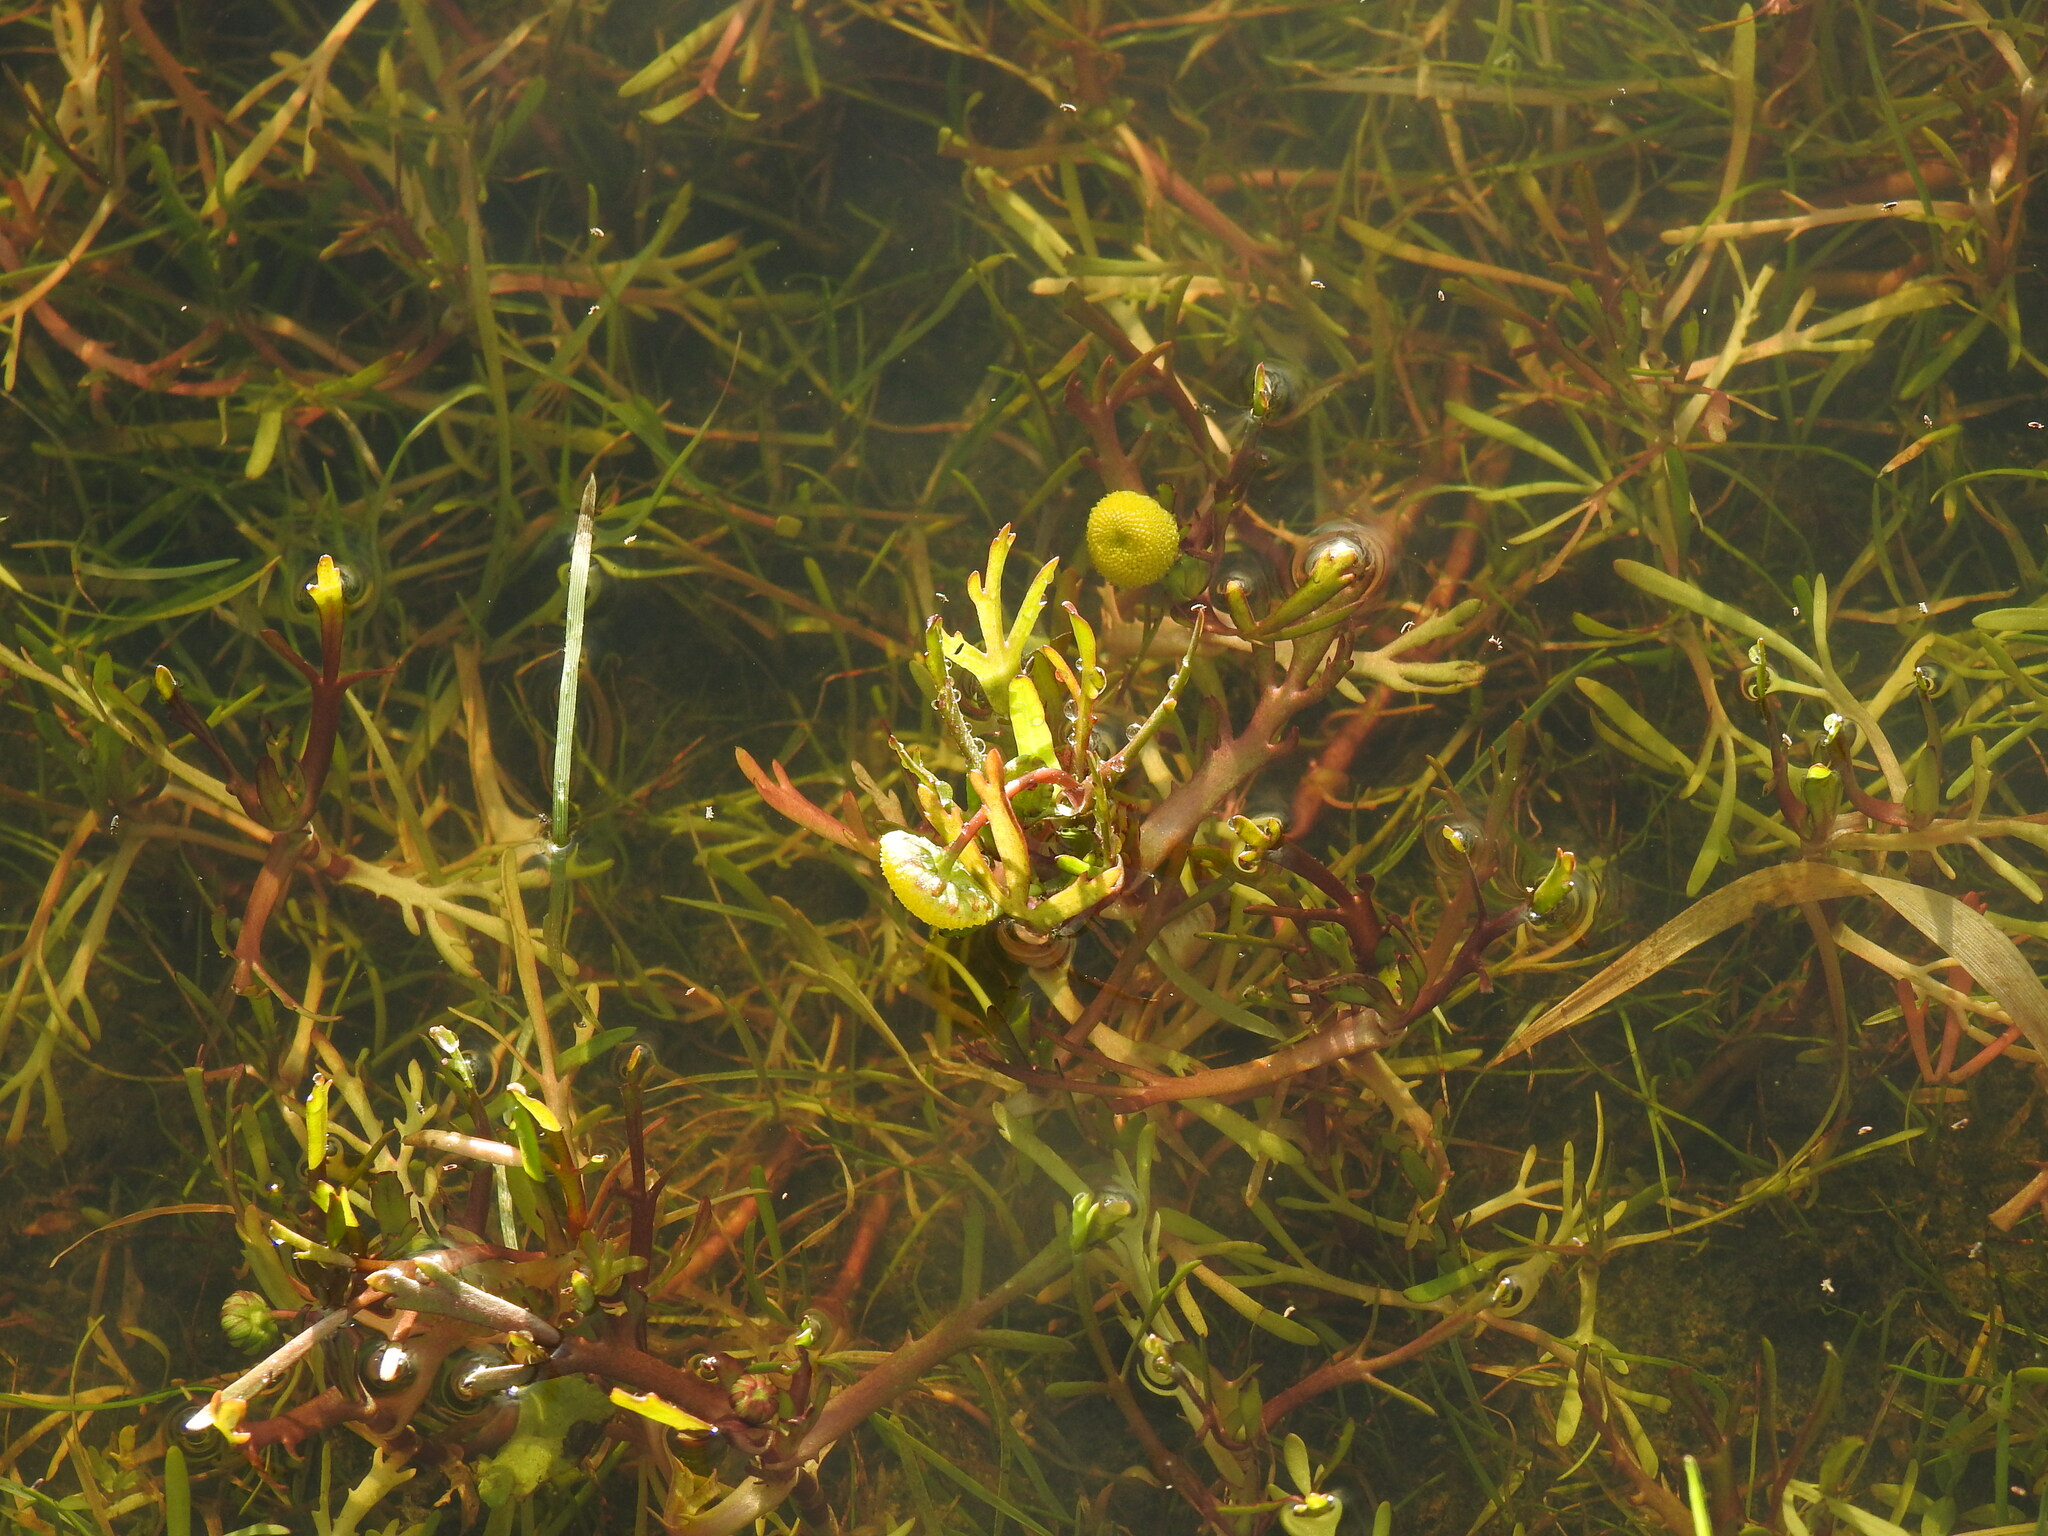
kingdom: Plantae
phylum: Tracheophyta
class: Magnoliopsida
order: Asterales
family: Asteraceae
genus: Cotula
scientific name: Cotula coronopifolia
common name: Buttonweed
